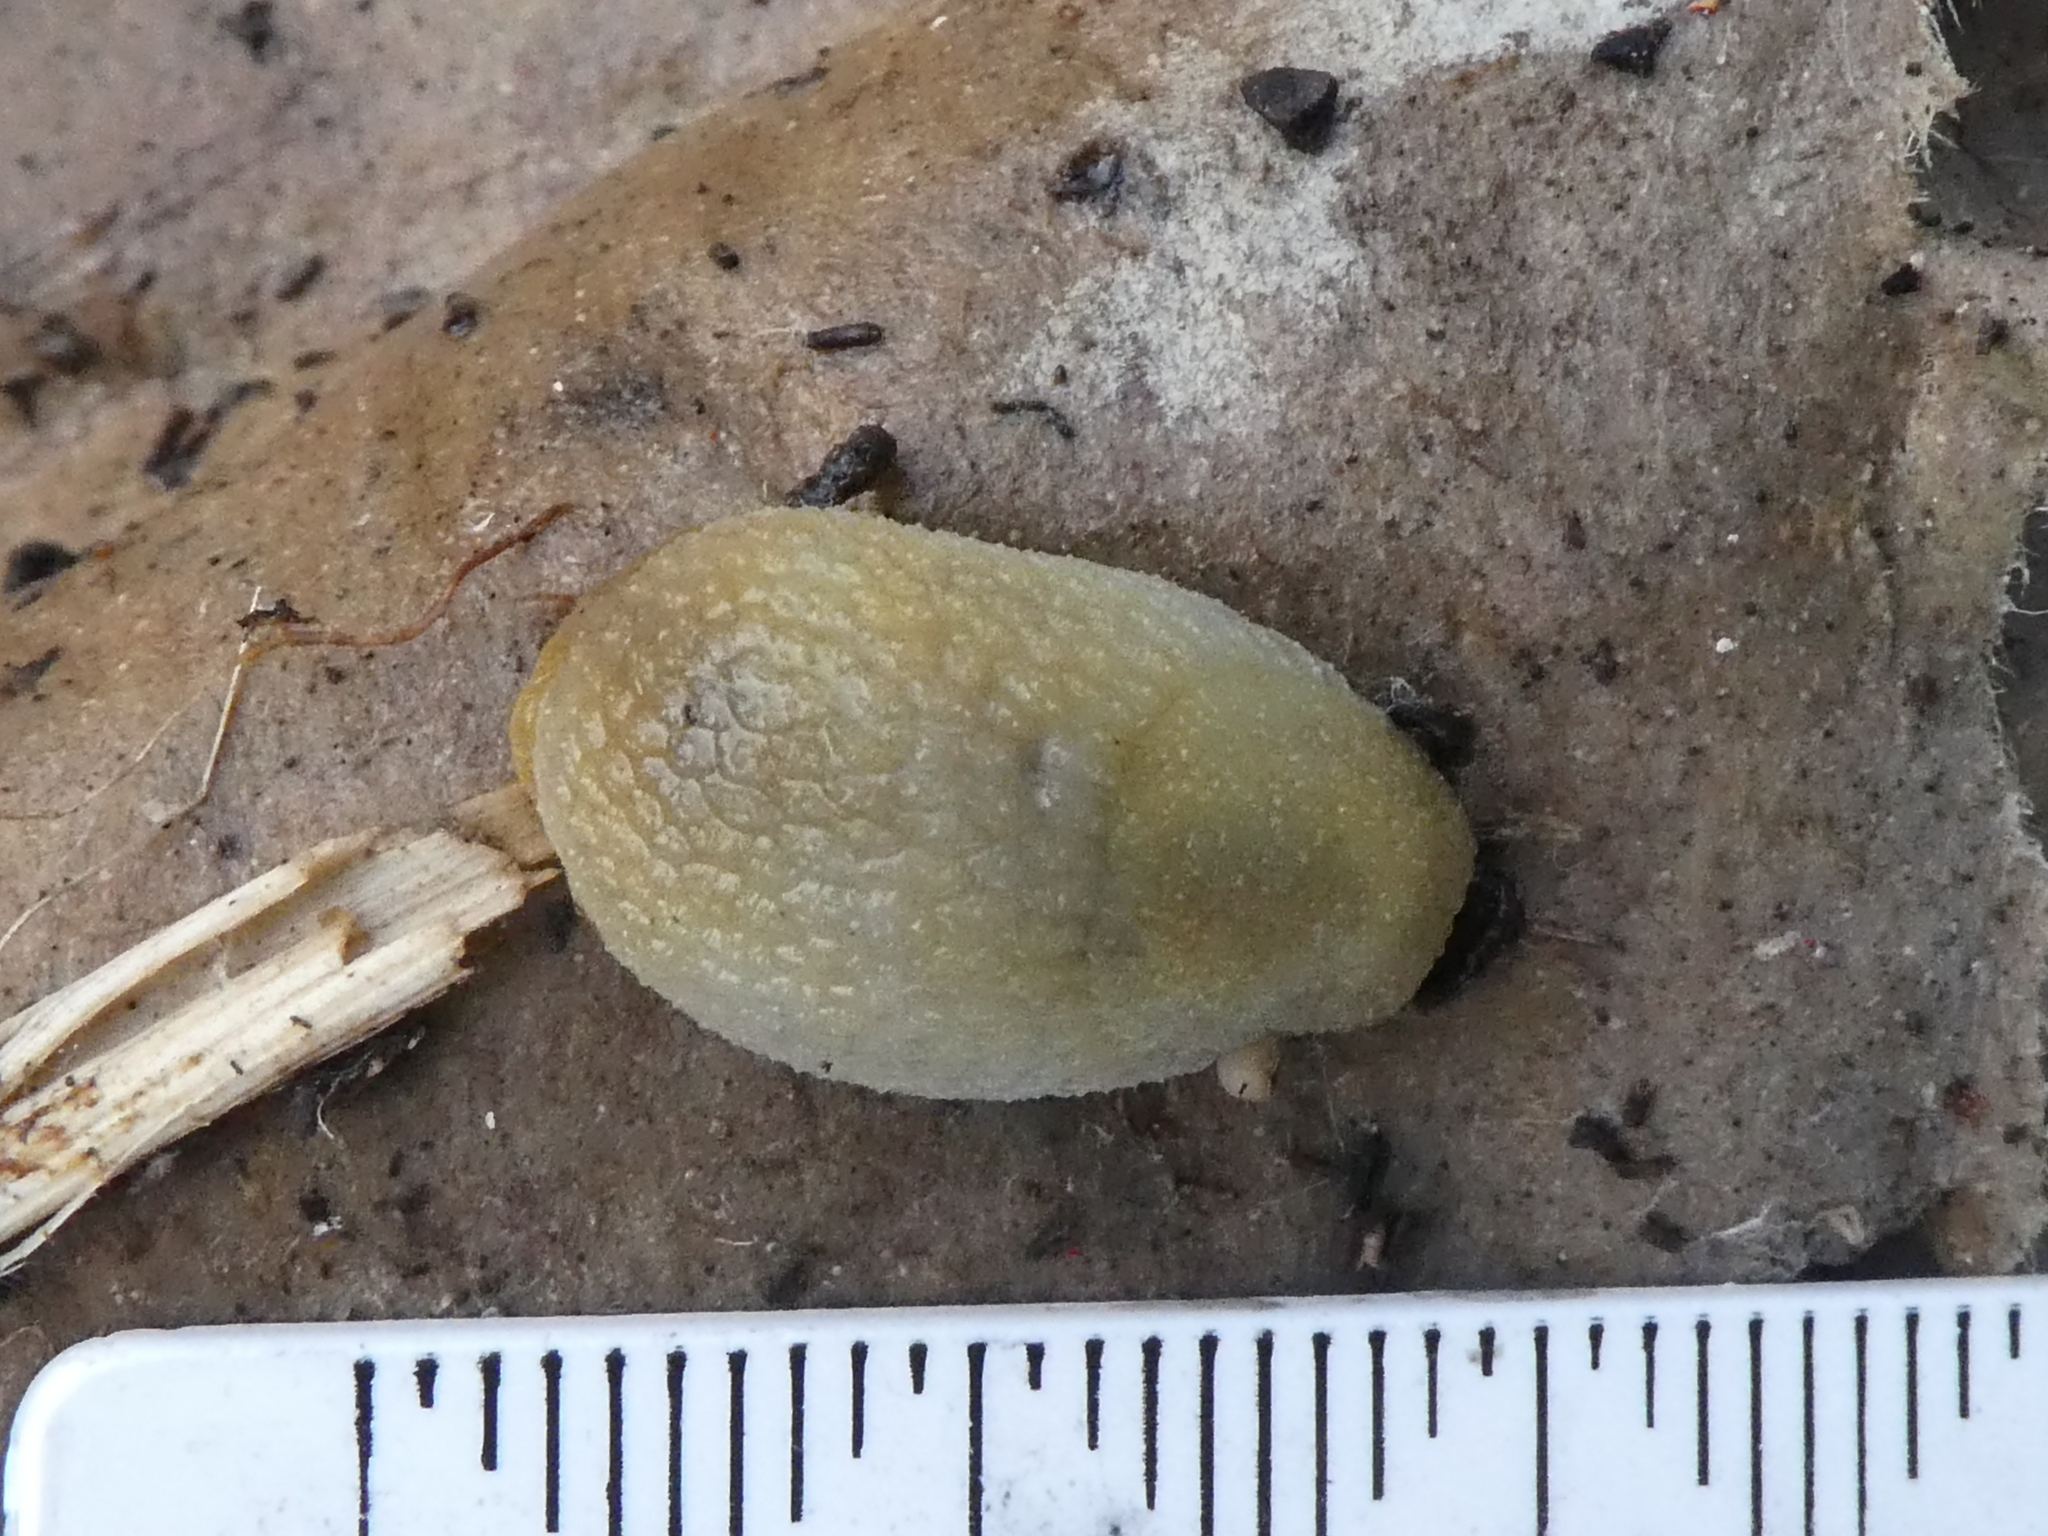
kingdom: Animalia
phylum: Mollusca
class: Gastropoda
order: Stylommatophora
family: Arionidae
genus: Arion
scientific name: Arion intermedius
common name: Hedgehog slug
